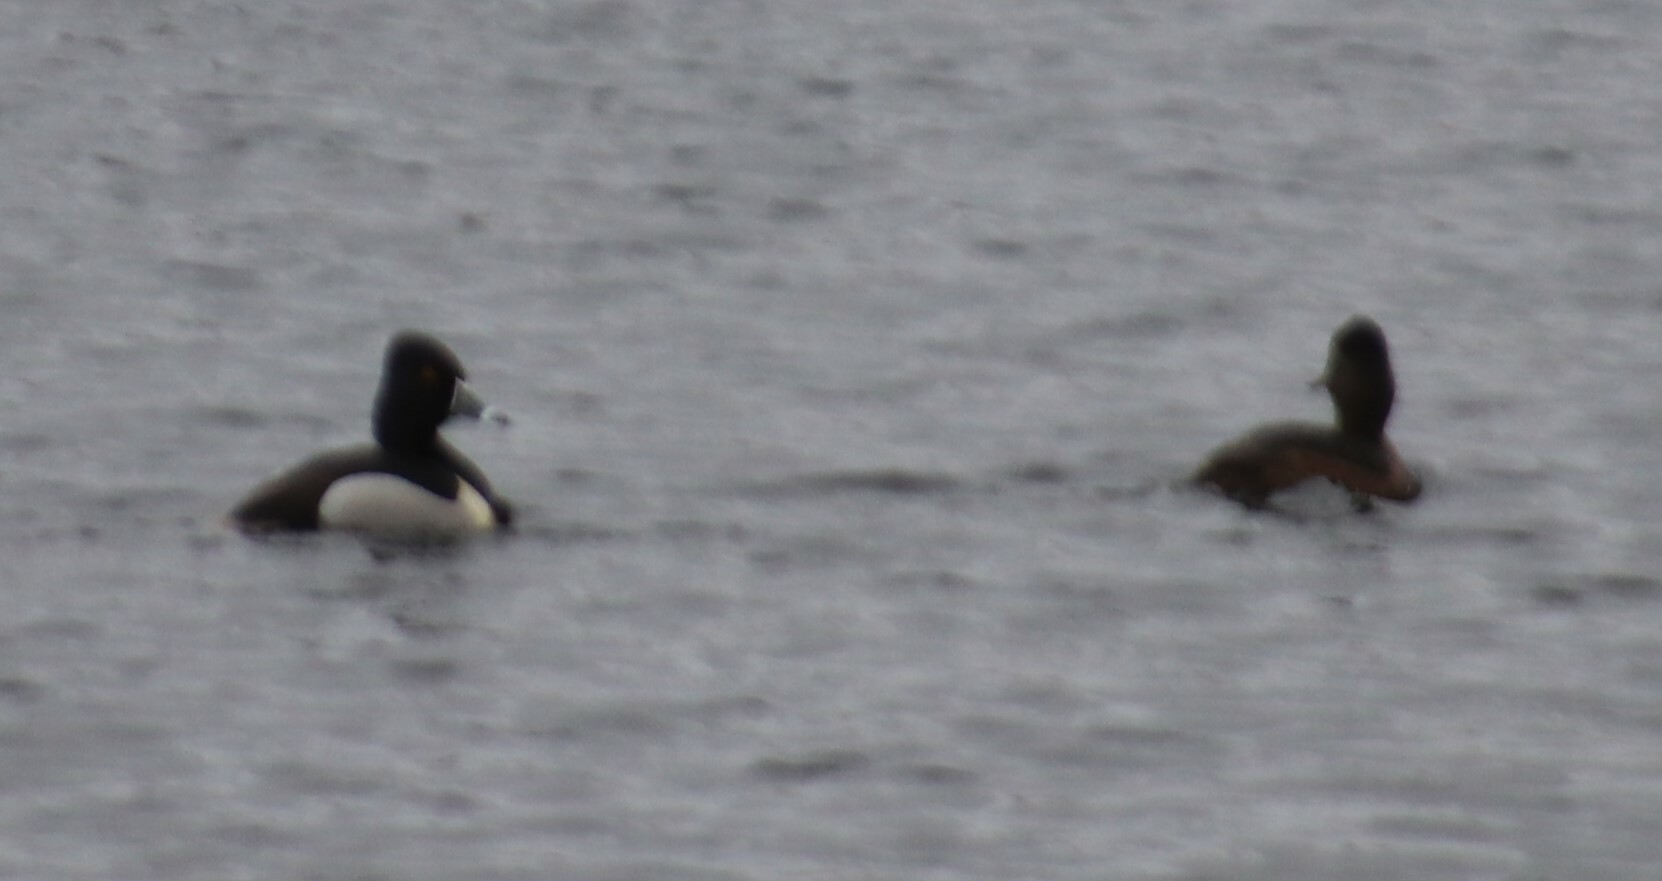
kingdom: Animalia
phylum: Chordata
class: Aves
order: Anseriformes
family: Anatidae
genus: Aythya
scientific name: Aythya collaris
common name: Ring-necked duck
